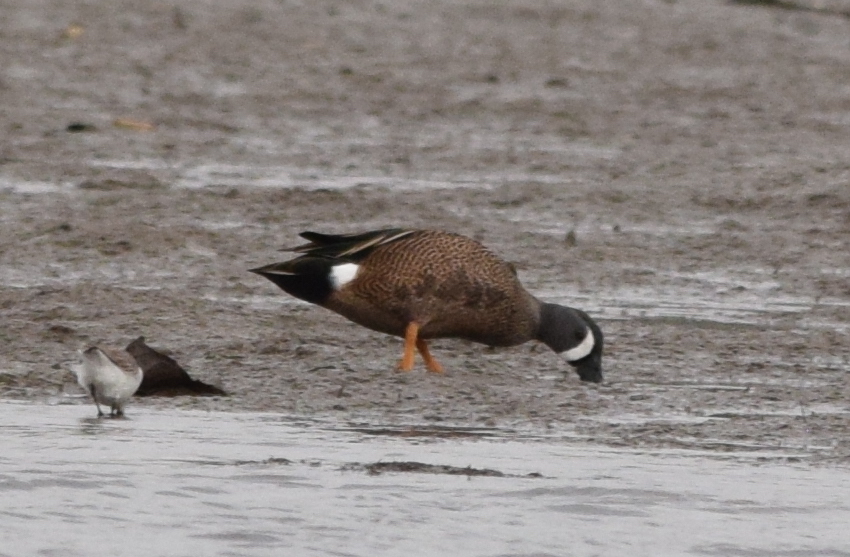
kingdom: Animalia
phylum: Chordata
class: Aves
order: Anseriformes
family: Anatidae
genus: Spatula
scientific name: Spatula discors
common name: Blue-winged teal
